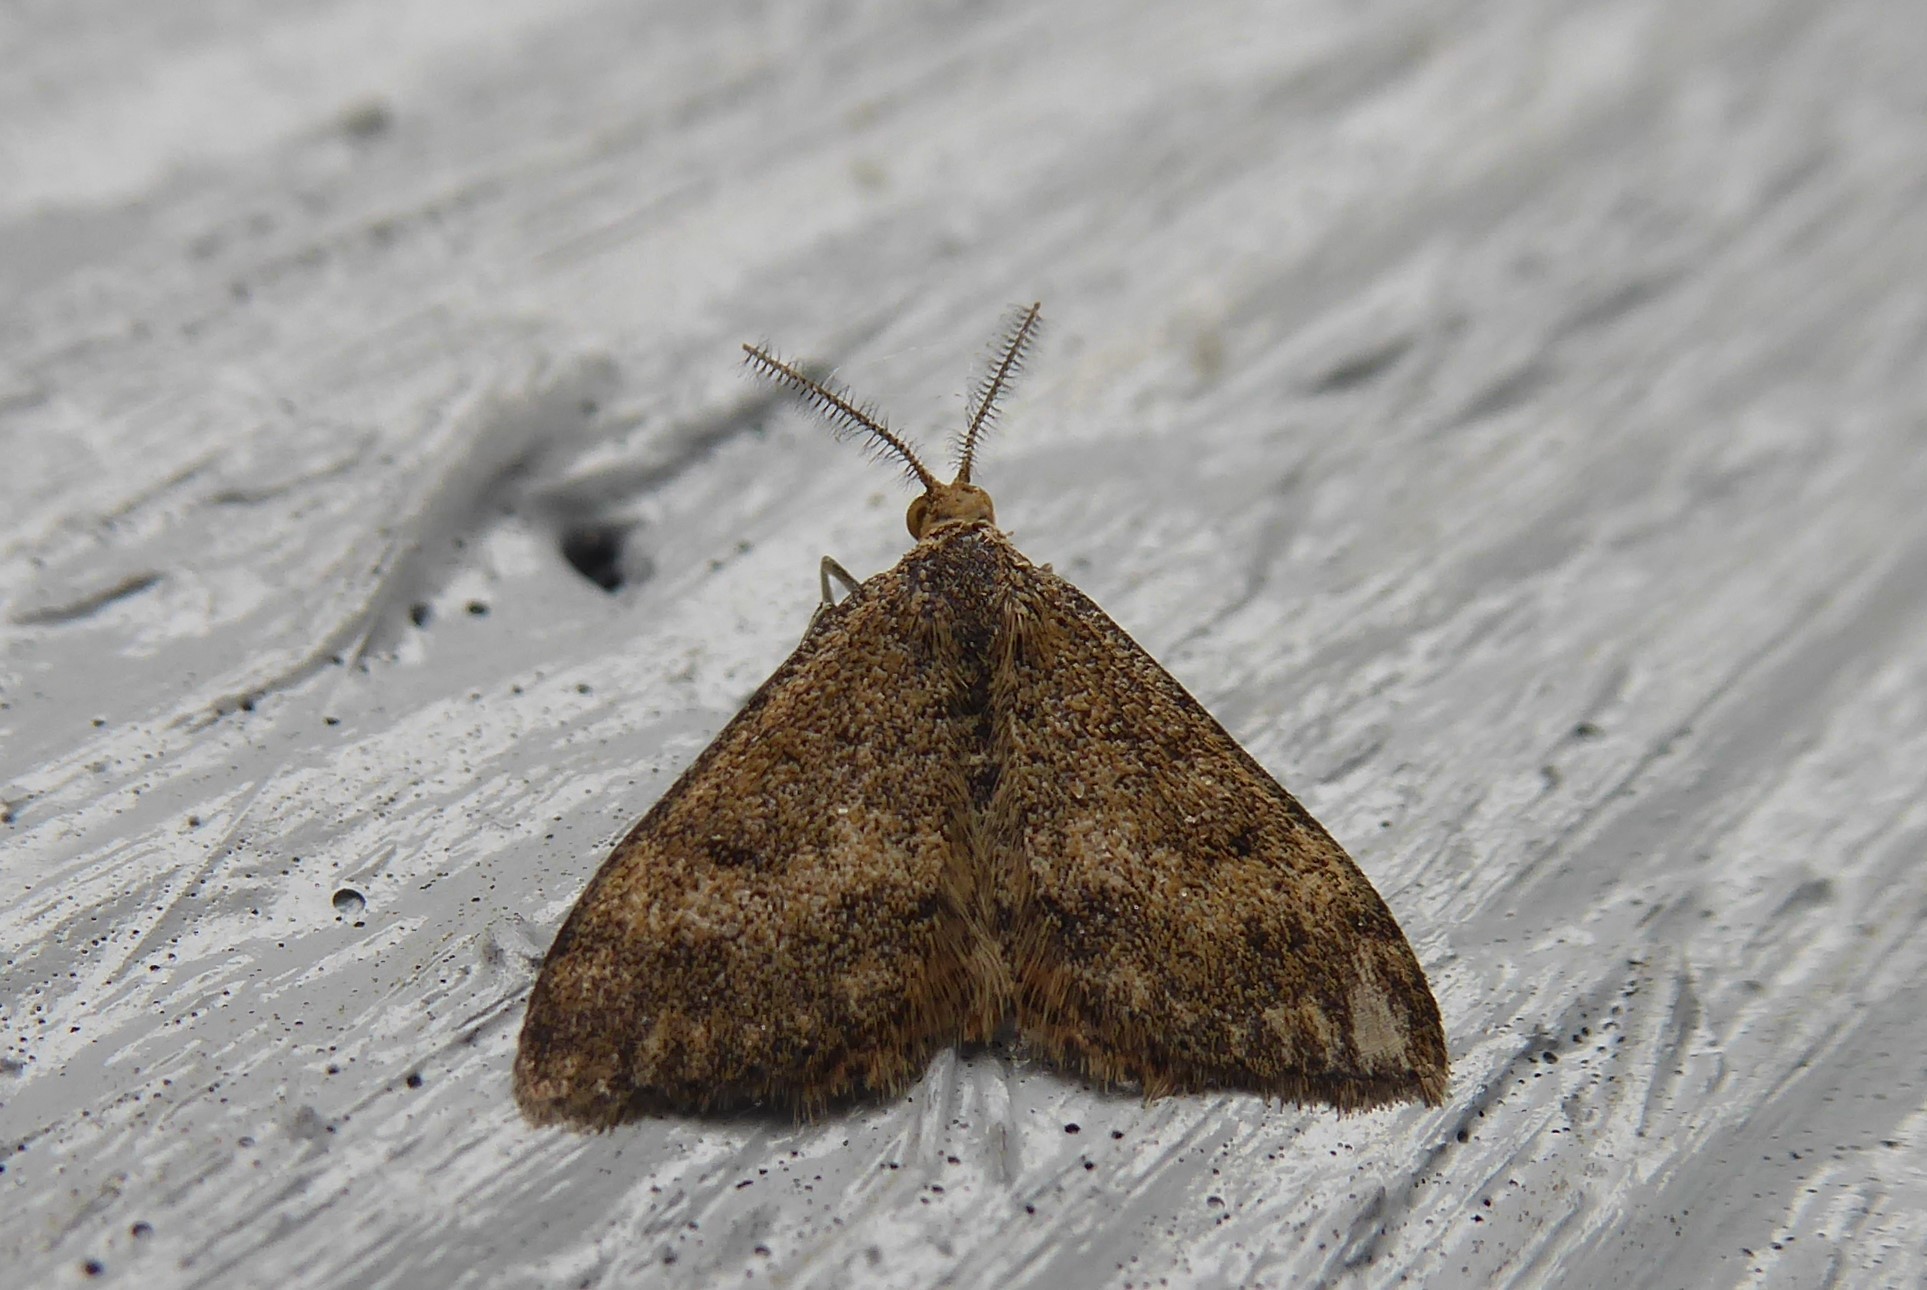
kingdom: Animalia
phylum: Arthropoda
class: Insecta
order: Lepidoptera
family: Geometridae
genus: Scopula
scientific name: Scopula rubraria
